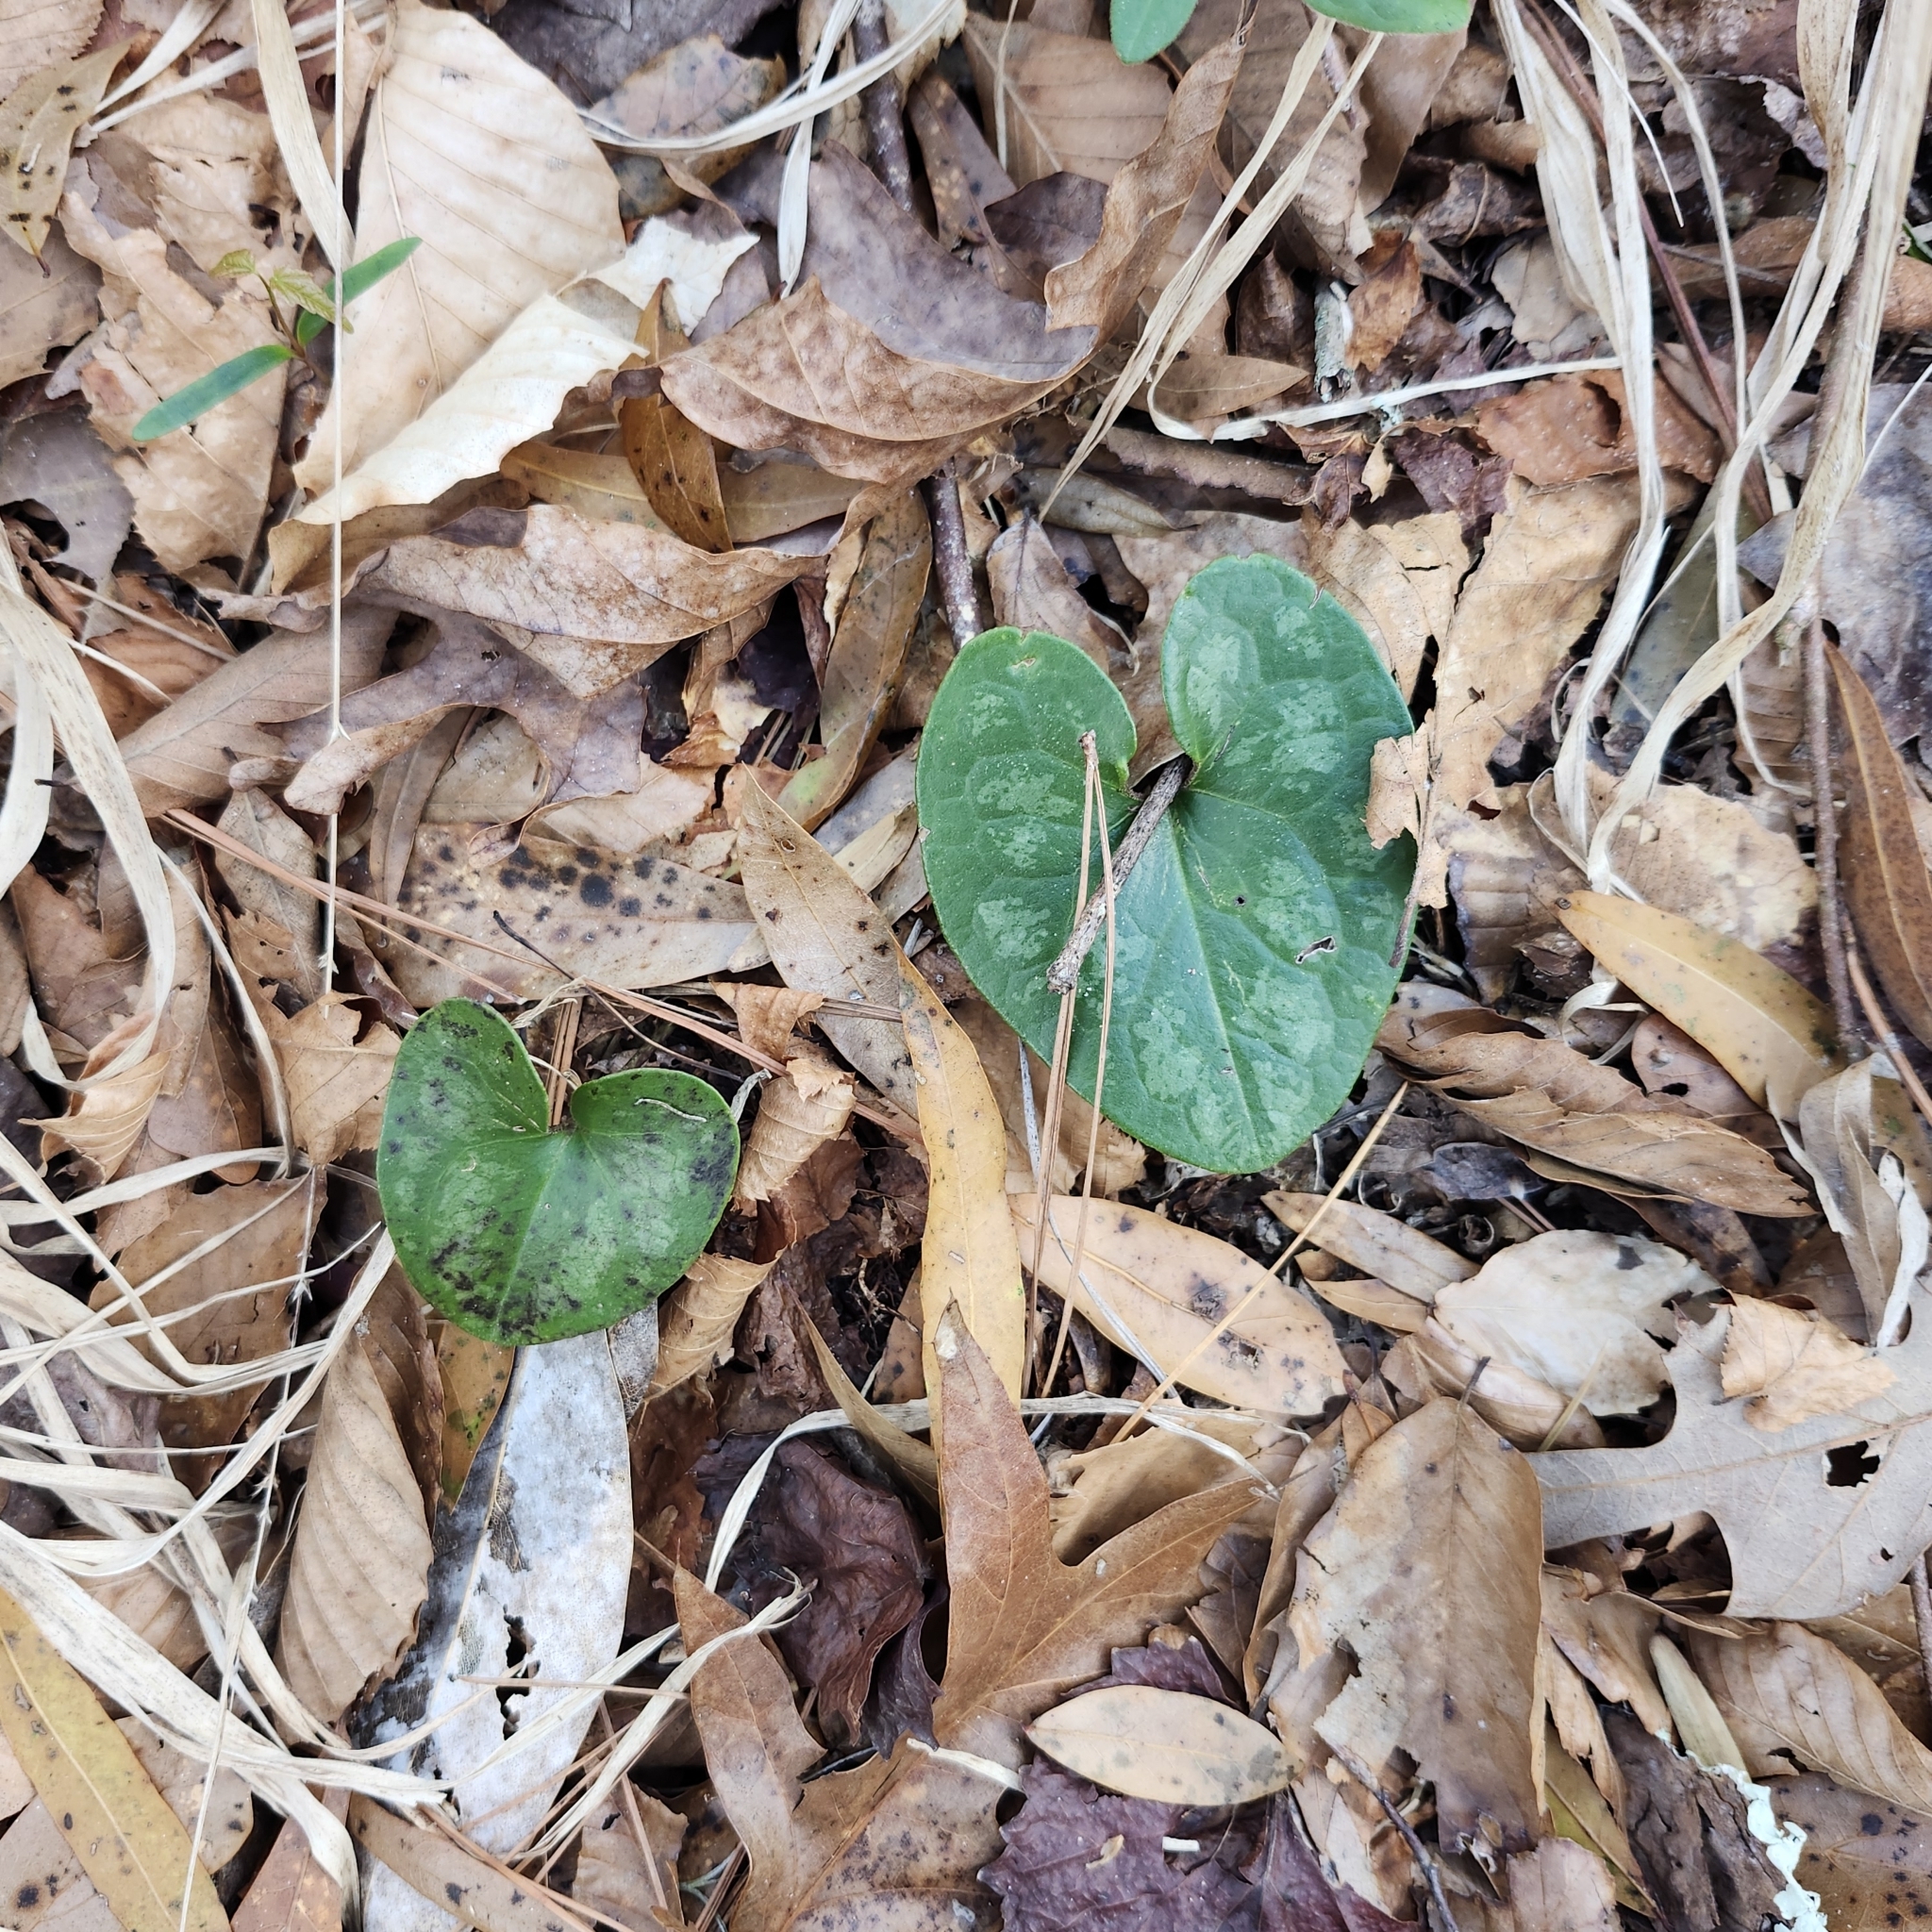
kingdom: Plantae
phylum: Tracheophyta
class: Magnoliopsida
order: Piperales
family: Aristolochiaceae
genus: Hexastylis
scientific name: Hexastylis arifolia
